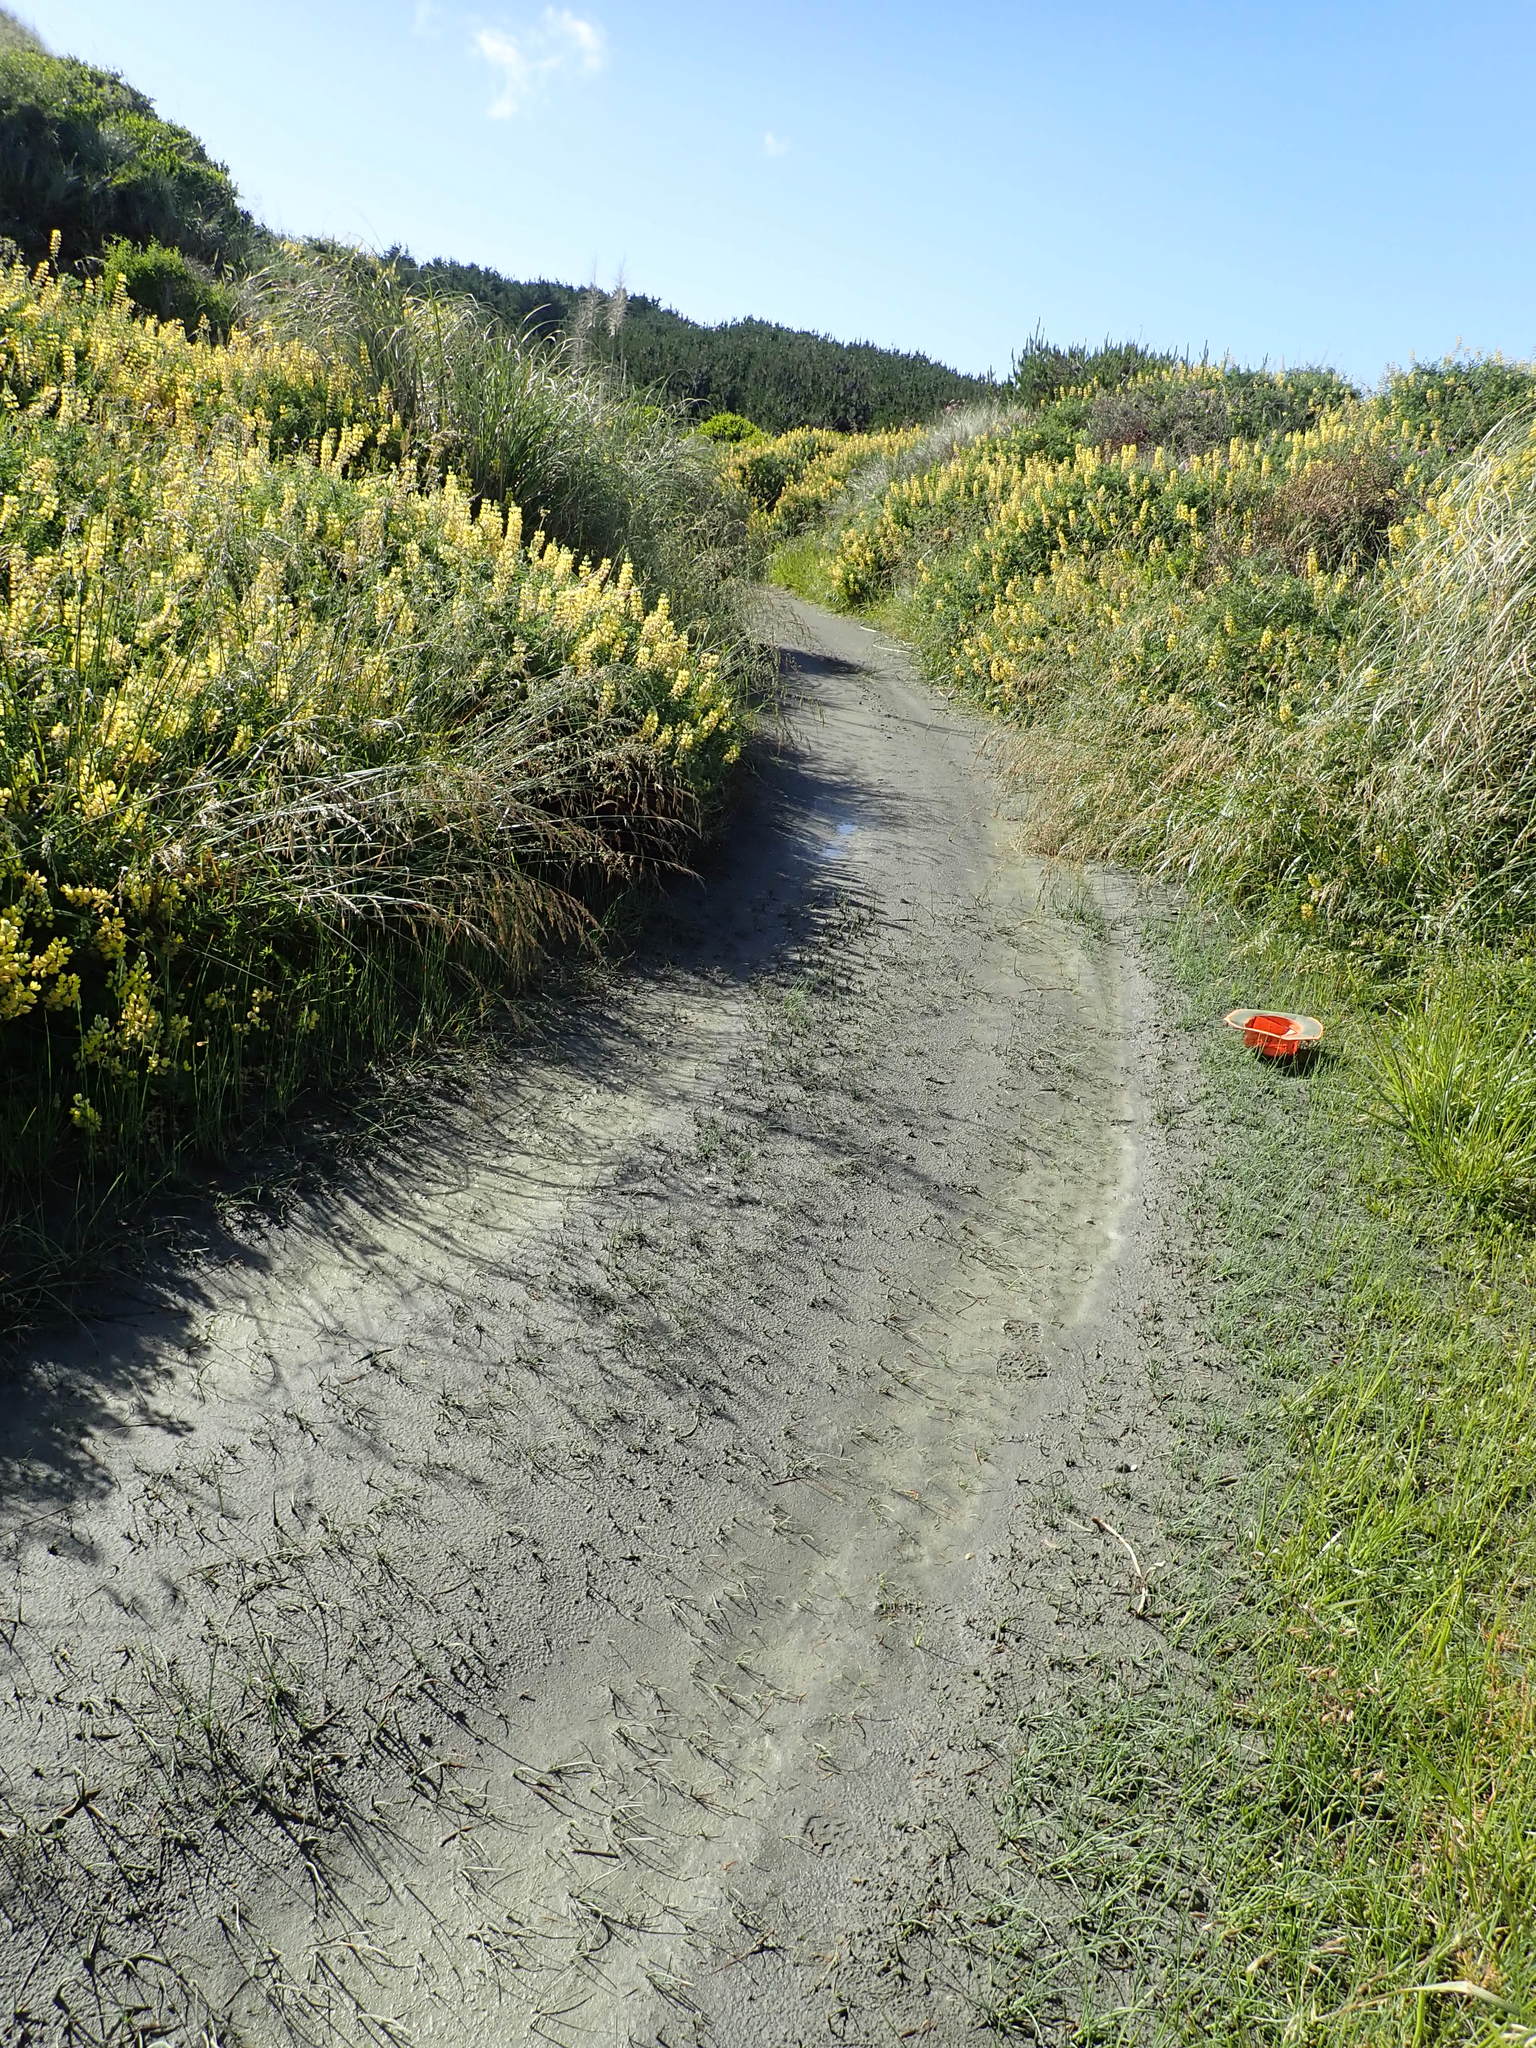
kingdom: Plantae
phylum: Tracheophyta
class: Liliopsida
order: Poales
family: Cyperaceae
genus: Schoenoplectus
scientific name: Schoenoplectus pungens
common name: Sharp club-rush
